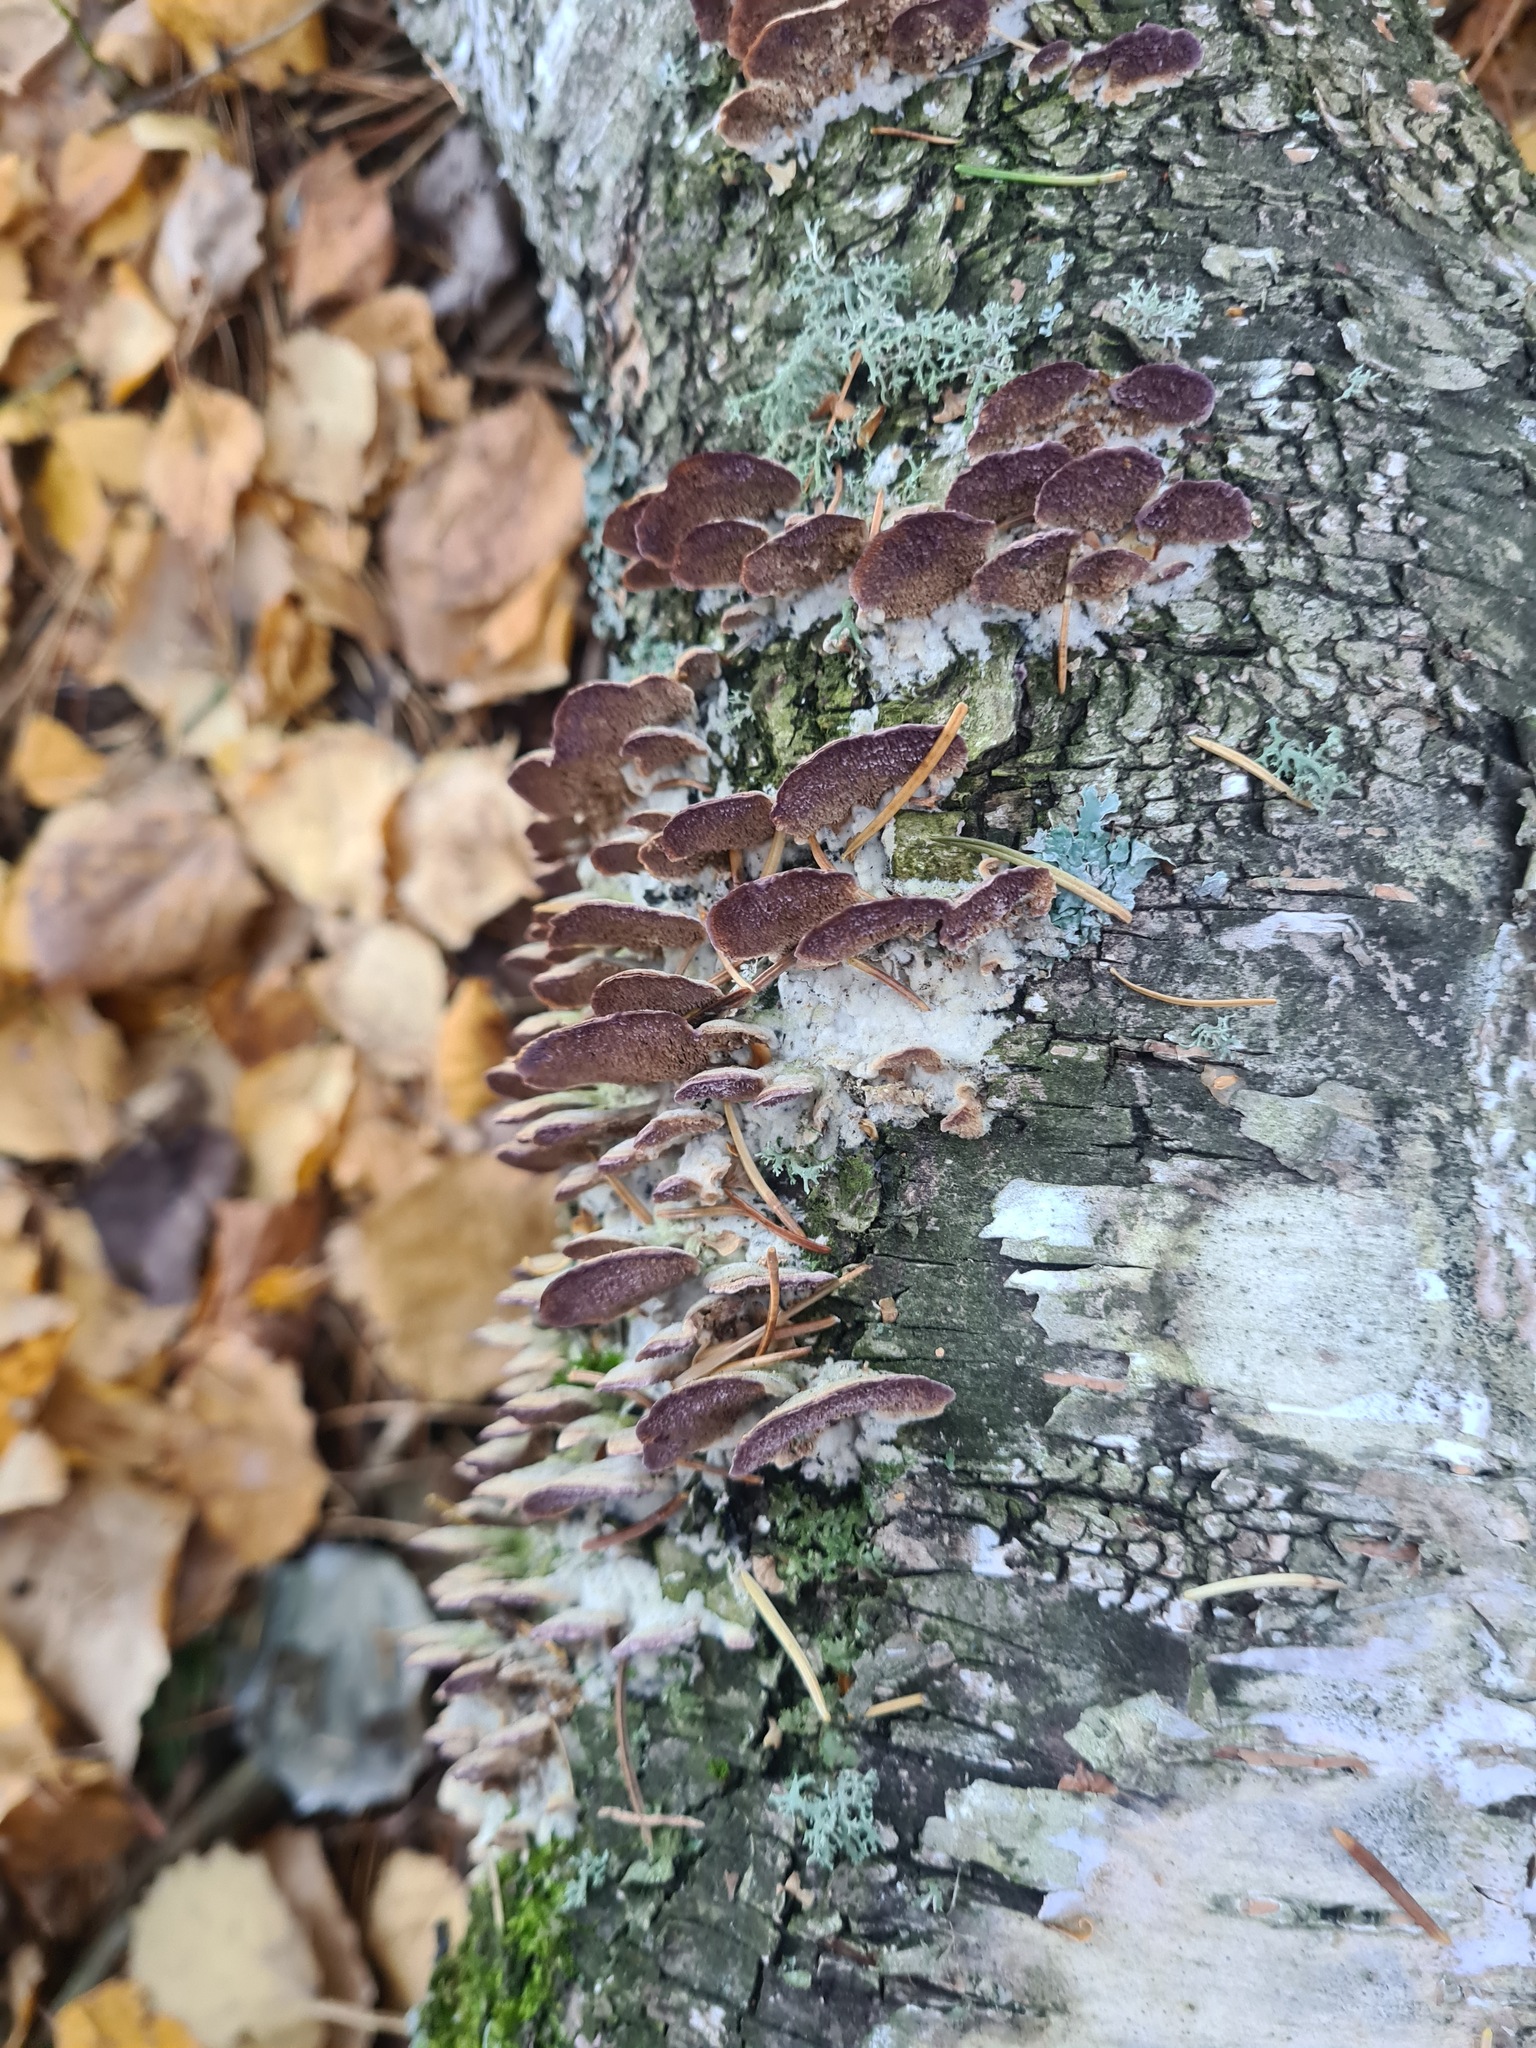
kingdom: Fungi
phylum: Basidiomycota
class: Agaricomycetes
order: Hymenochaetales
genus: Trichaptum
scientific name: Trichaptum biforme
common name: Violet-toothed polypore
